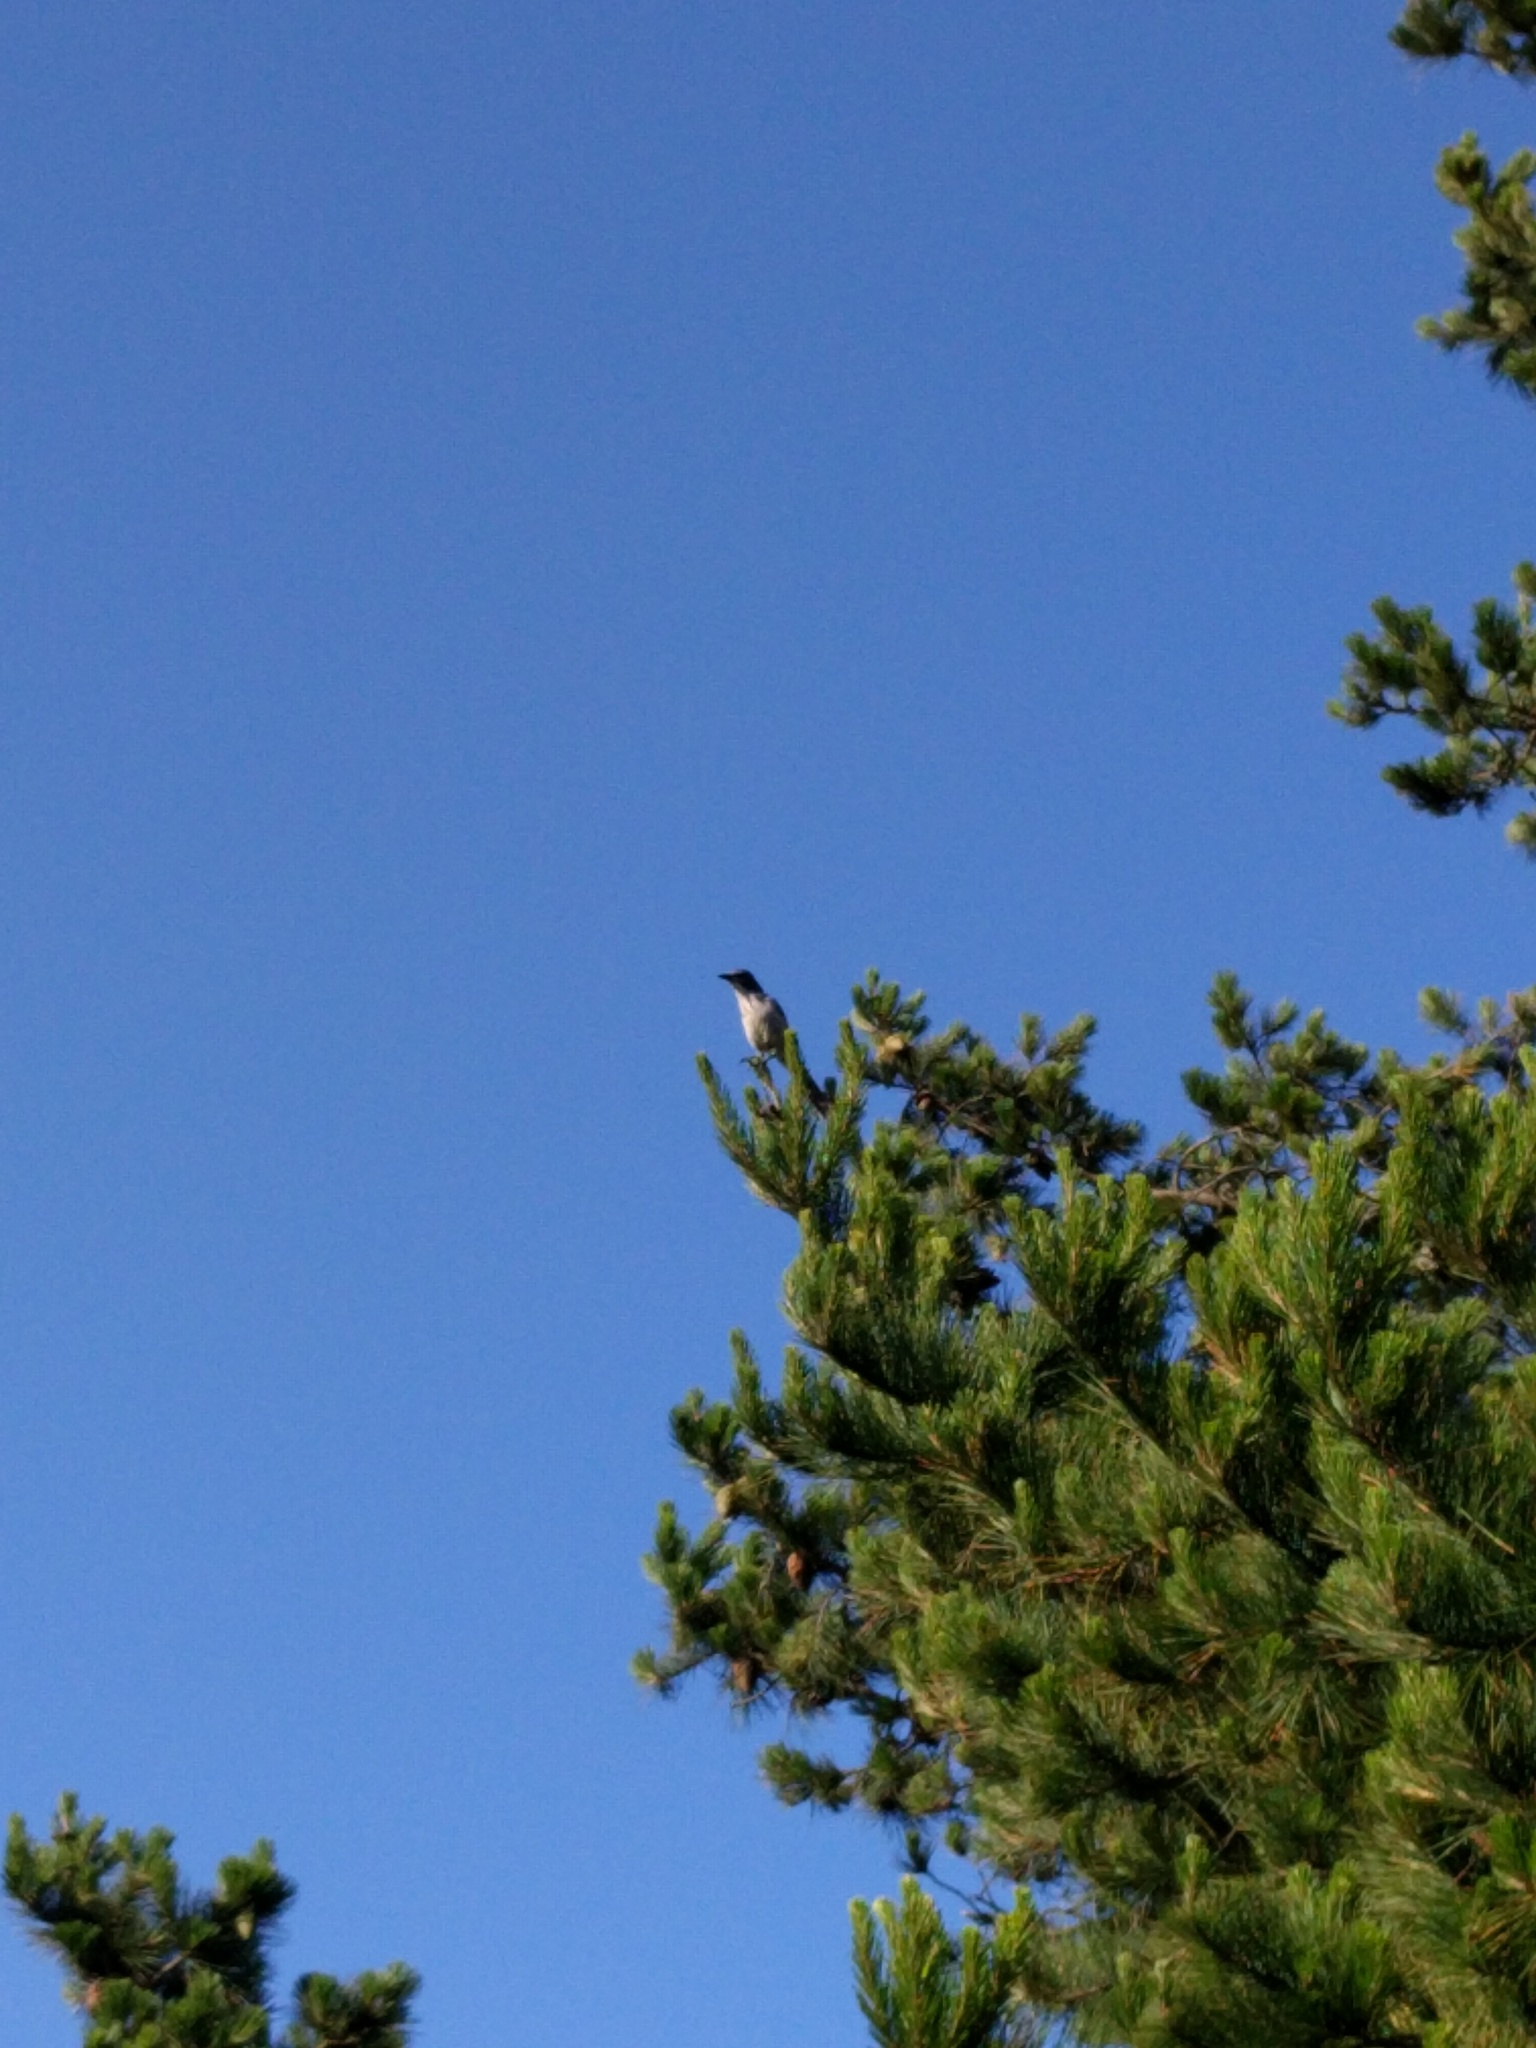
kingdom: Animalia
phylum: Chordata
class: Aves
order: Passeriformes
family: Corvidae
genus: Aphelocoma
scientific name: Aphelocoma californica
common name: California scrub-jay
